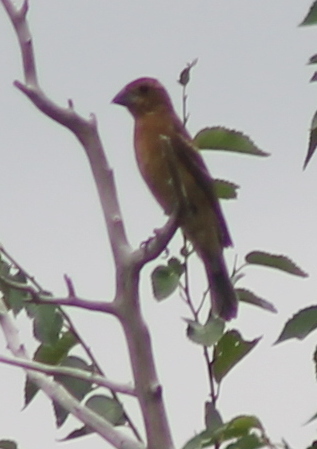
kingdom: Animalia
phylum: Chordata
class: Aves
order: Passeriformes
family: Cardinalidae
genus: Passerina
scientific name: Passerina caerulea
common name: Blue grosbeak
